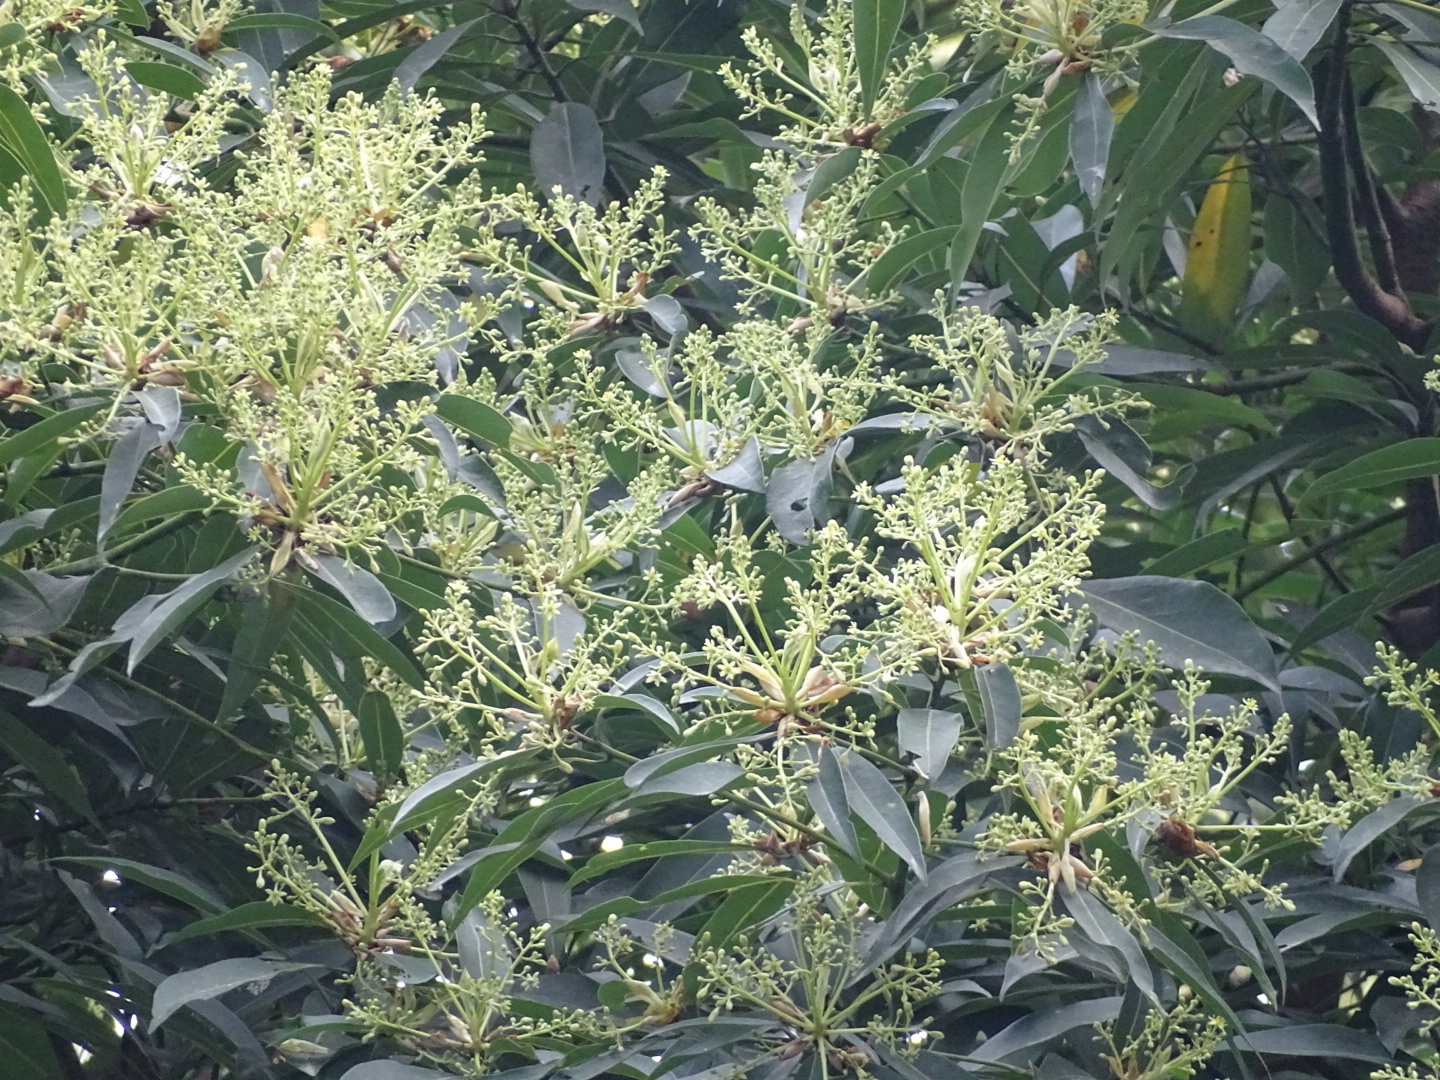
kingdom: Plantae
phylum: Tracheophyta
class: Magnoliopsida
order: Laurales
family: Lauraceae
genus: Machilus
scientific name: Machilus pauhoi
